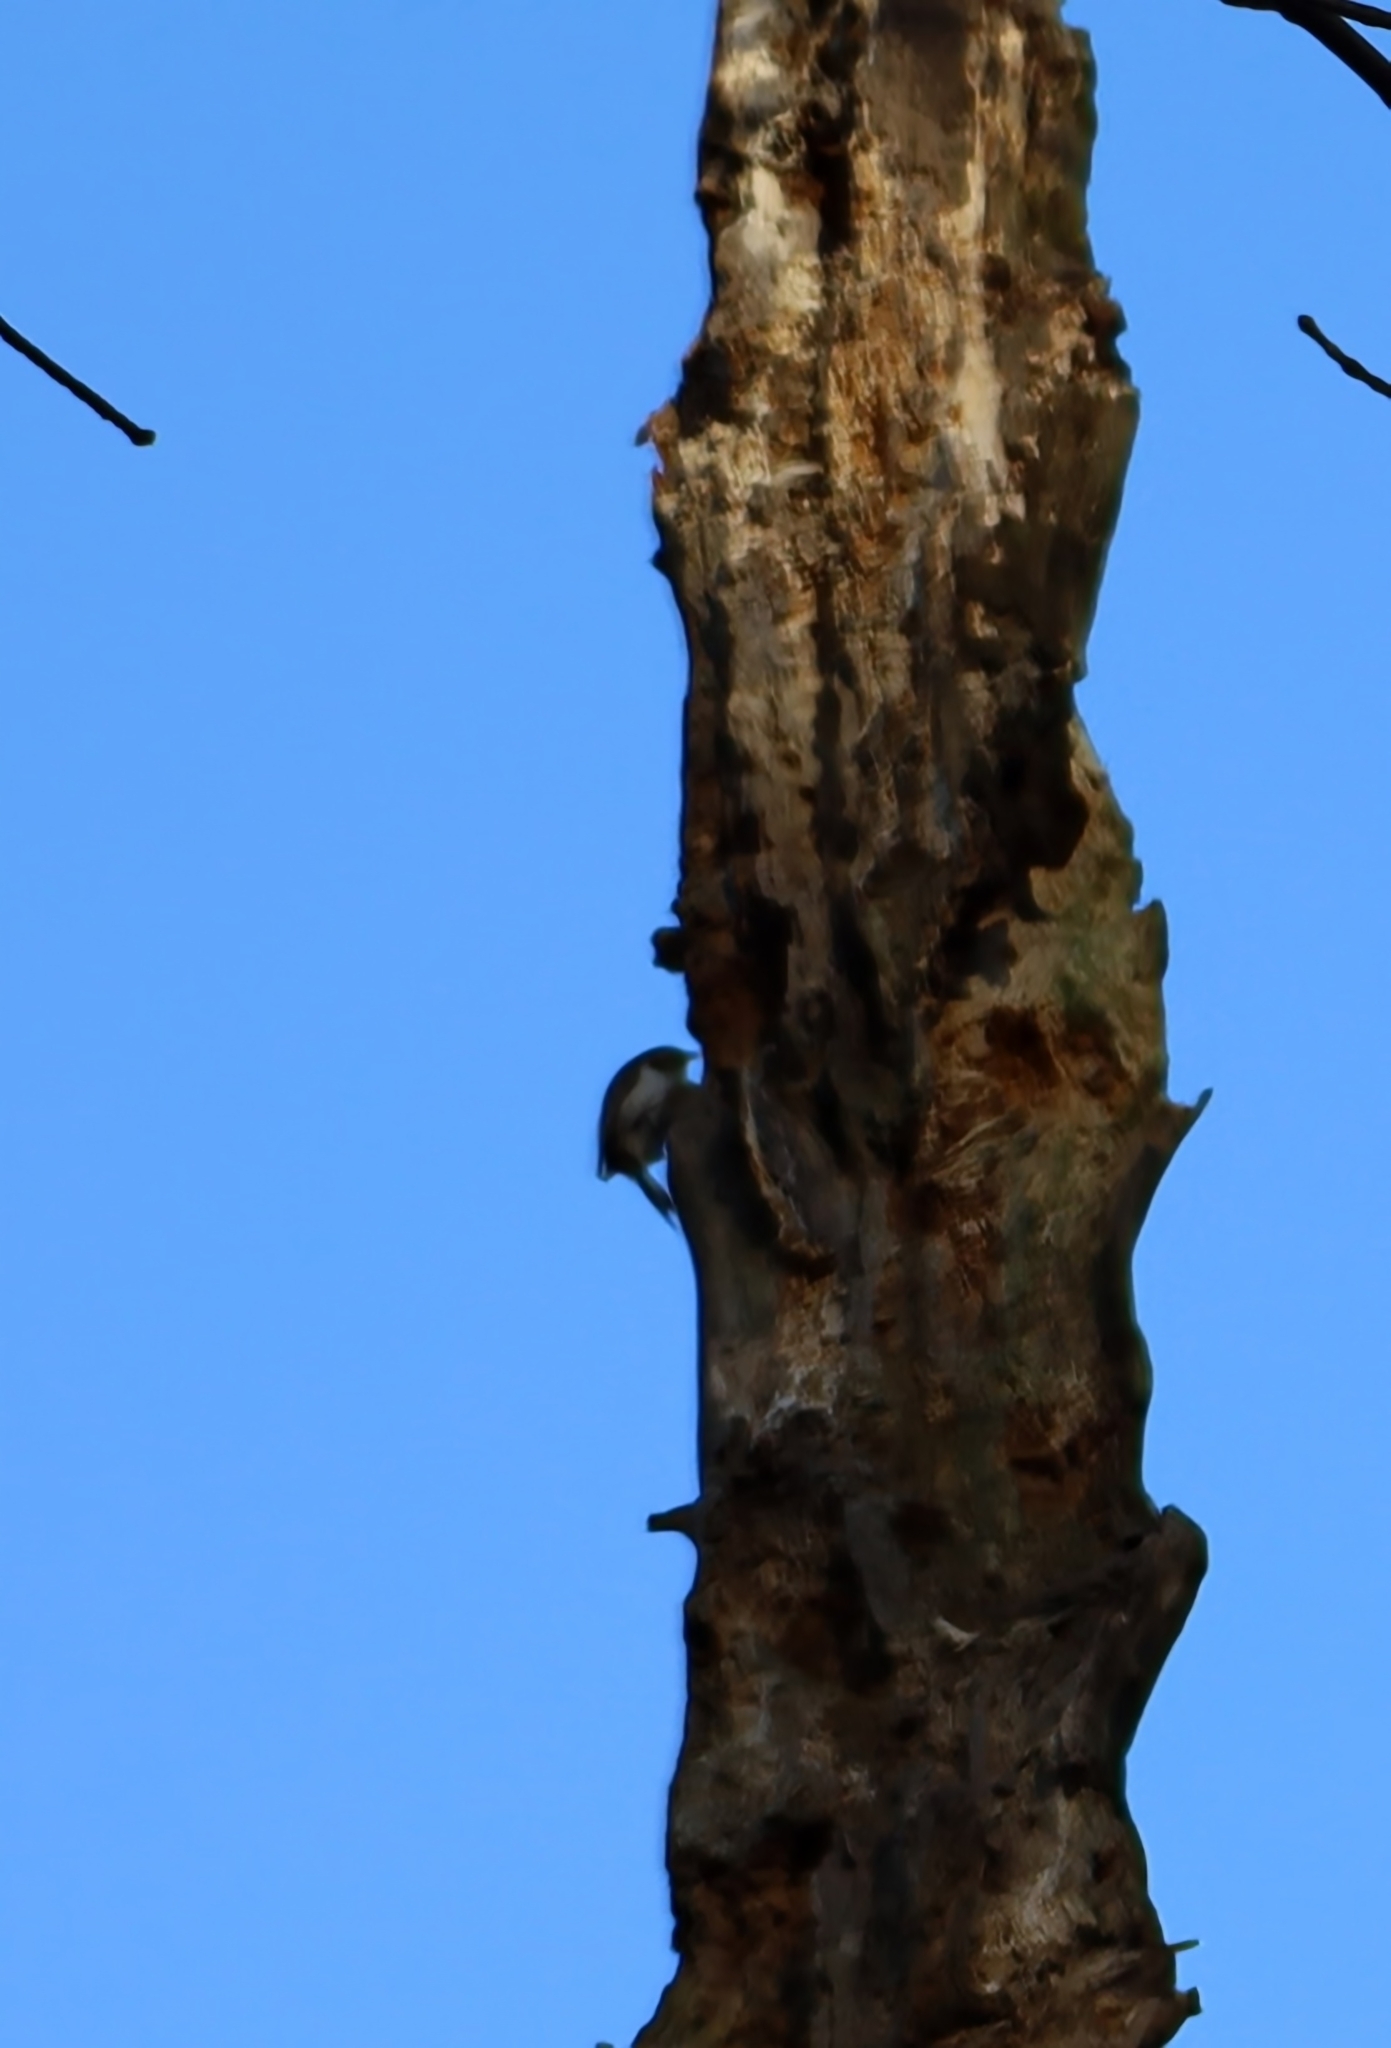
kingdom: Animalia
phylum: Chordata
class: Aves
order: Passeriformes
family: Certhiidae
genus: Certhia
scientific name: Certhia familiaris
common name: Eurasian treecreeper
